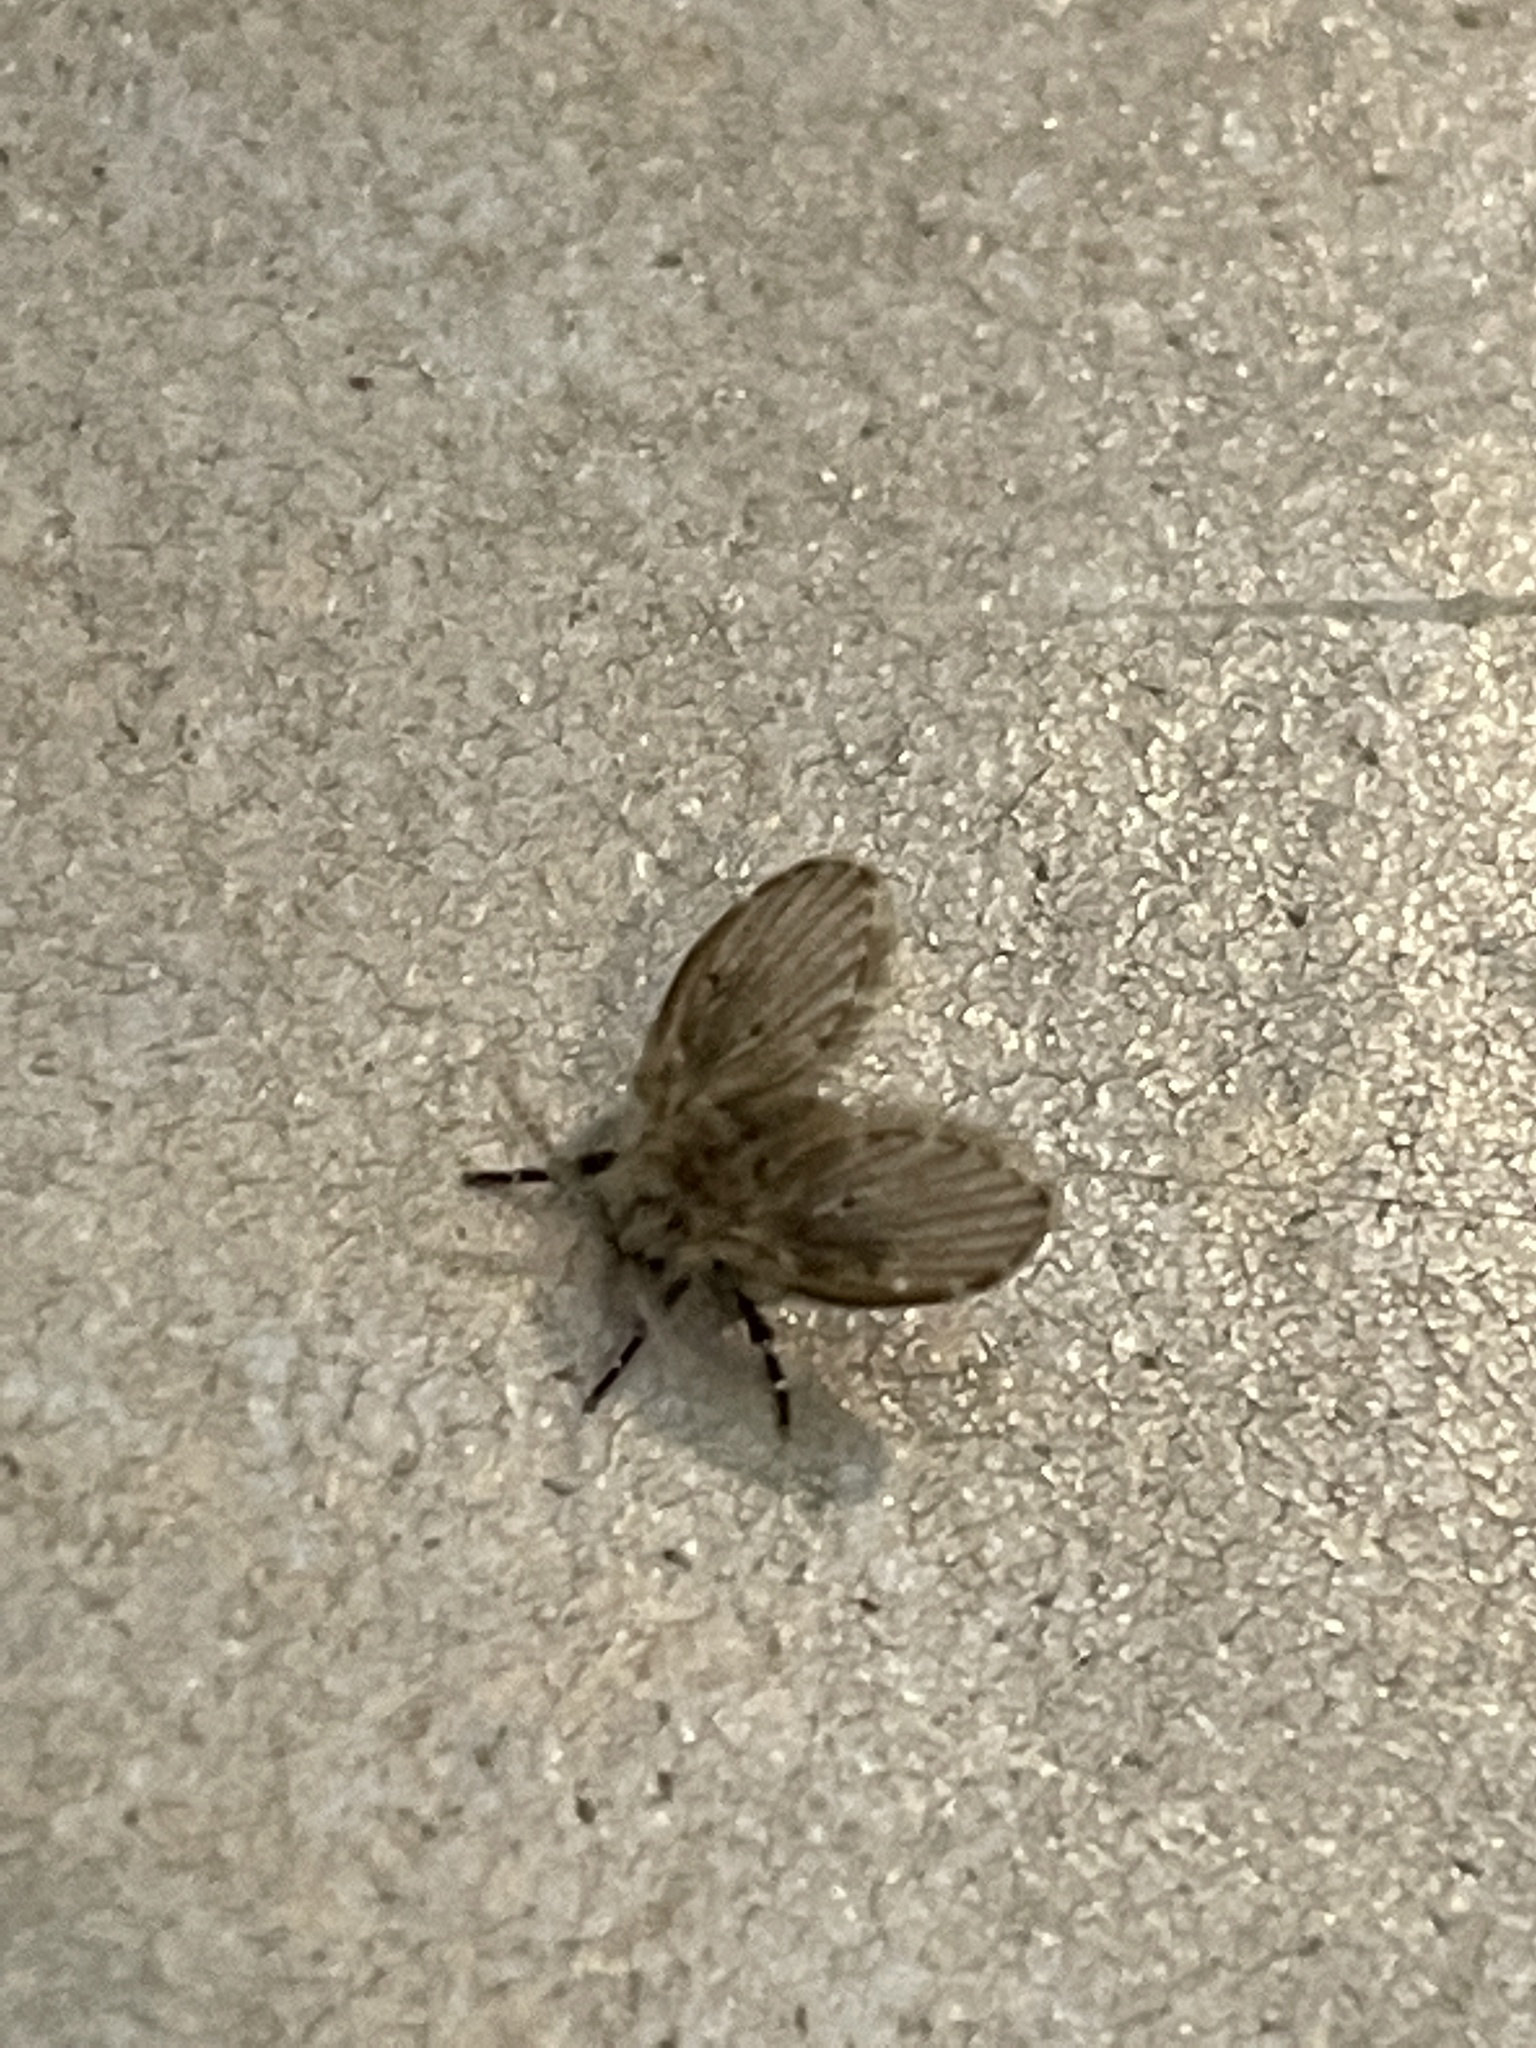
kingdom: Animalia
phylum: Arthropoda
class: Insecta
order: Diptera
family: Psychodidae
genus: Clogmia
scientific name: Clogmia albipunctatus
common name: White-spotted moth fly
